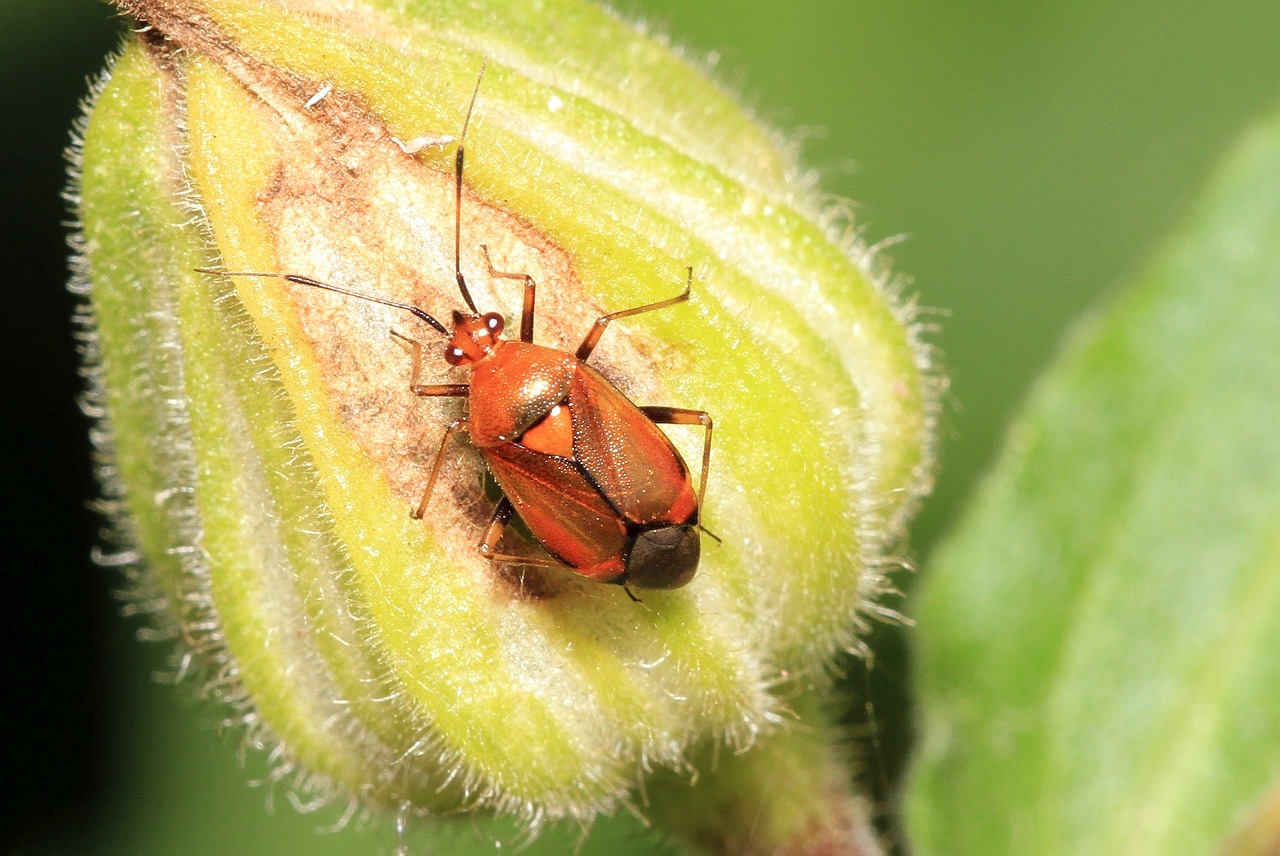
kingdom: Animalia
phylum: Arthropoda
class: Insecta
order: Hemiptera
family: Miridae
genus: Deraeocoris
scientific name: Deraeocoris ruber
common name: Plant bug
